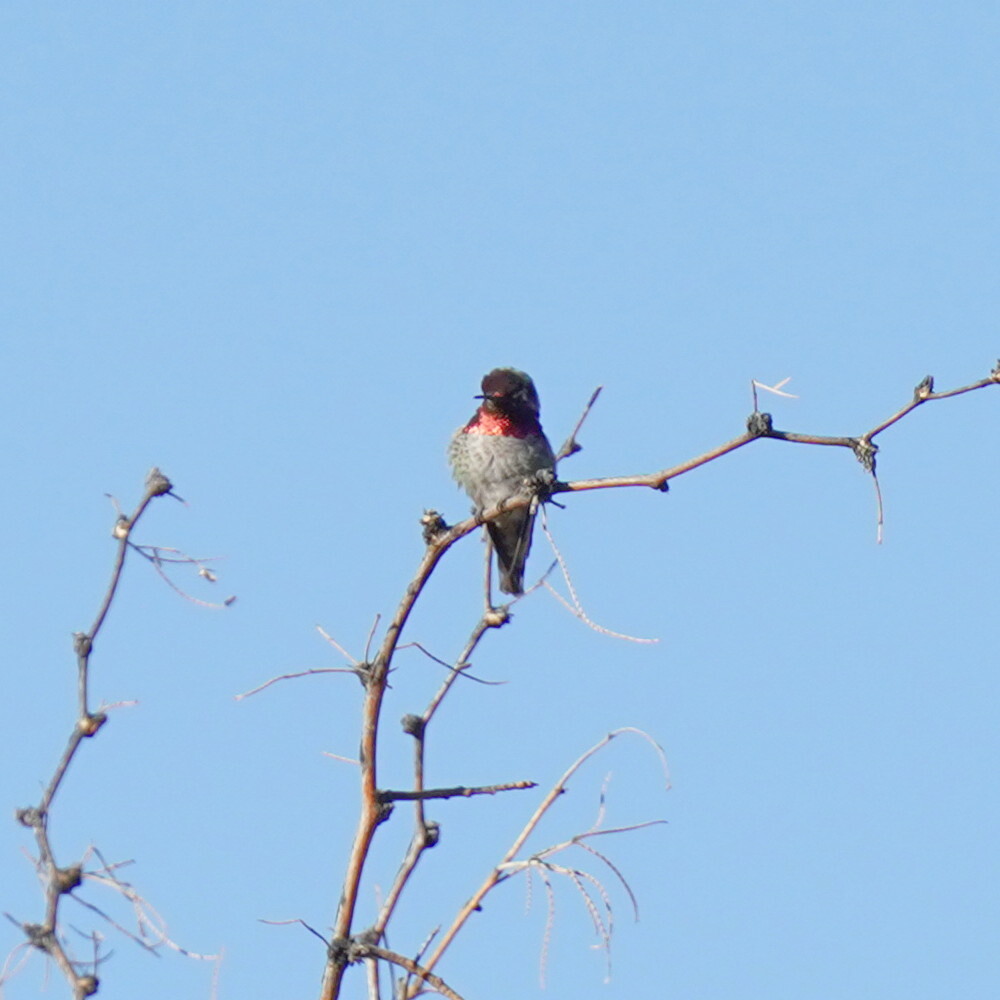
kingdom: Animalia
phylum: Chordata
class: Aves
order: Apodiformes
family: Trochilidae
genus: Calypte
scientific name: Calypte anna
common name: Anna's hummingbird
